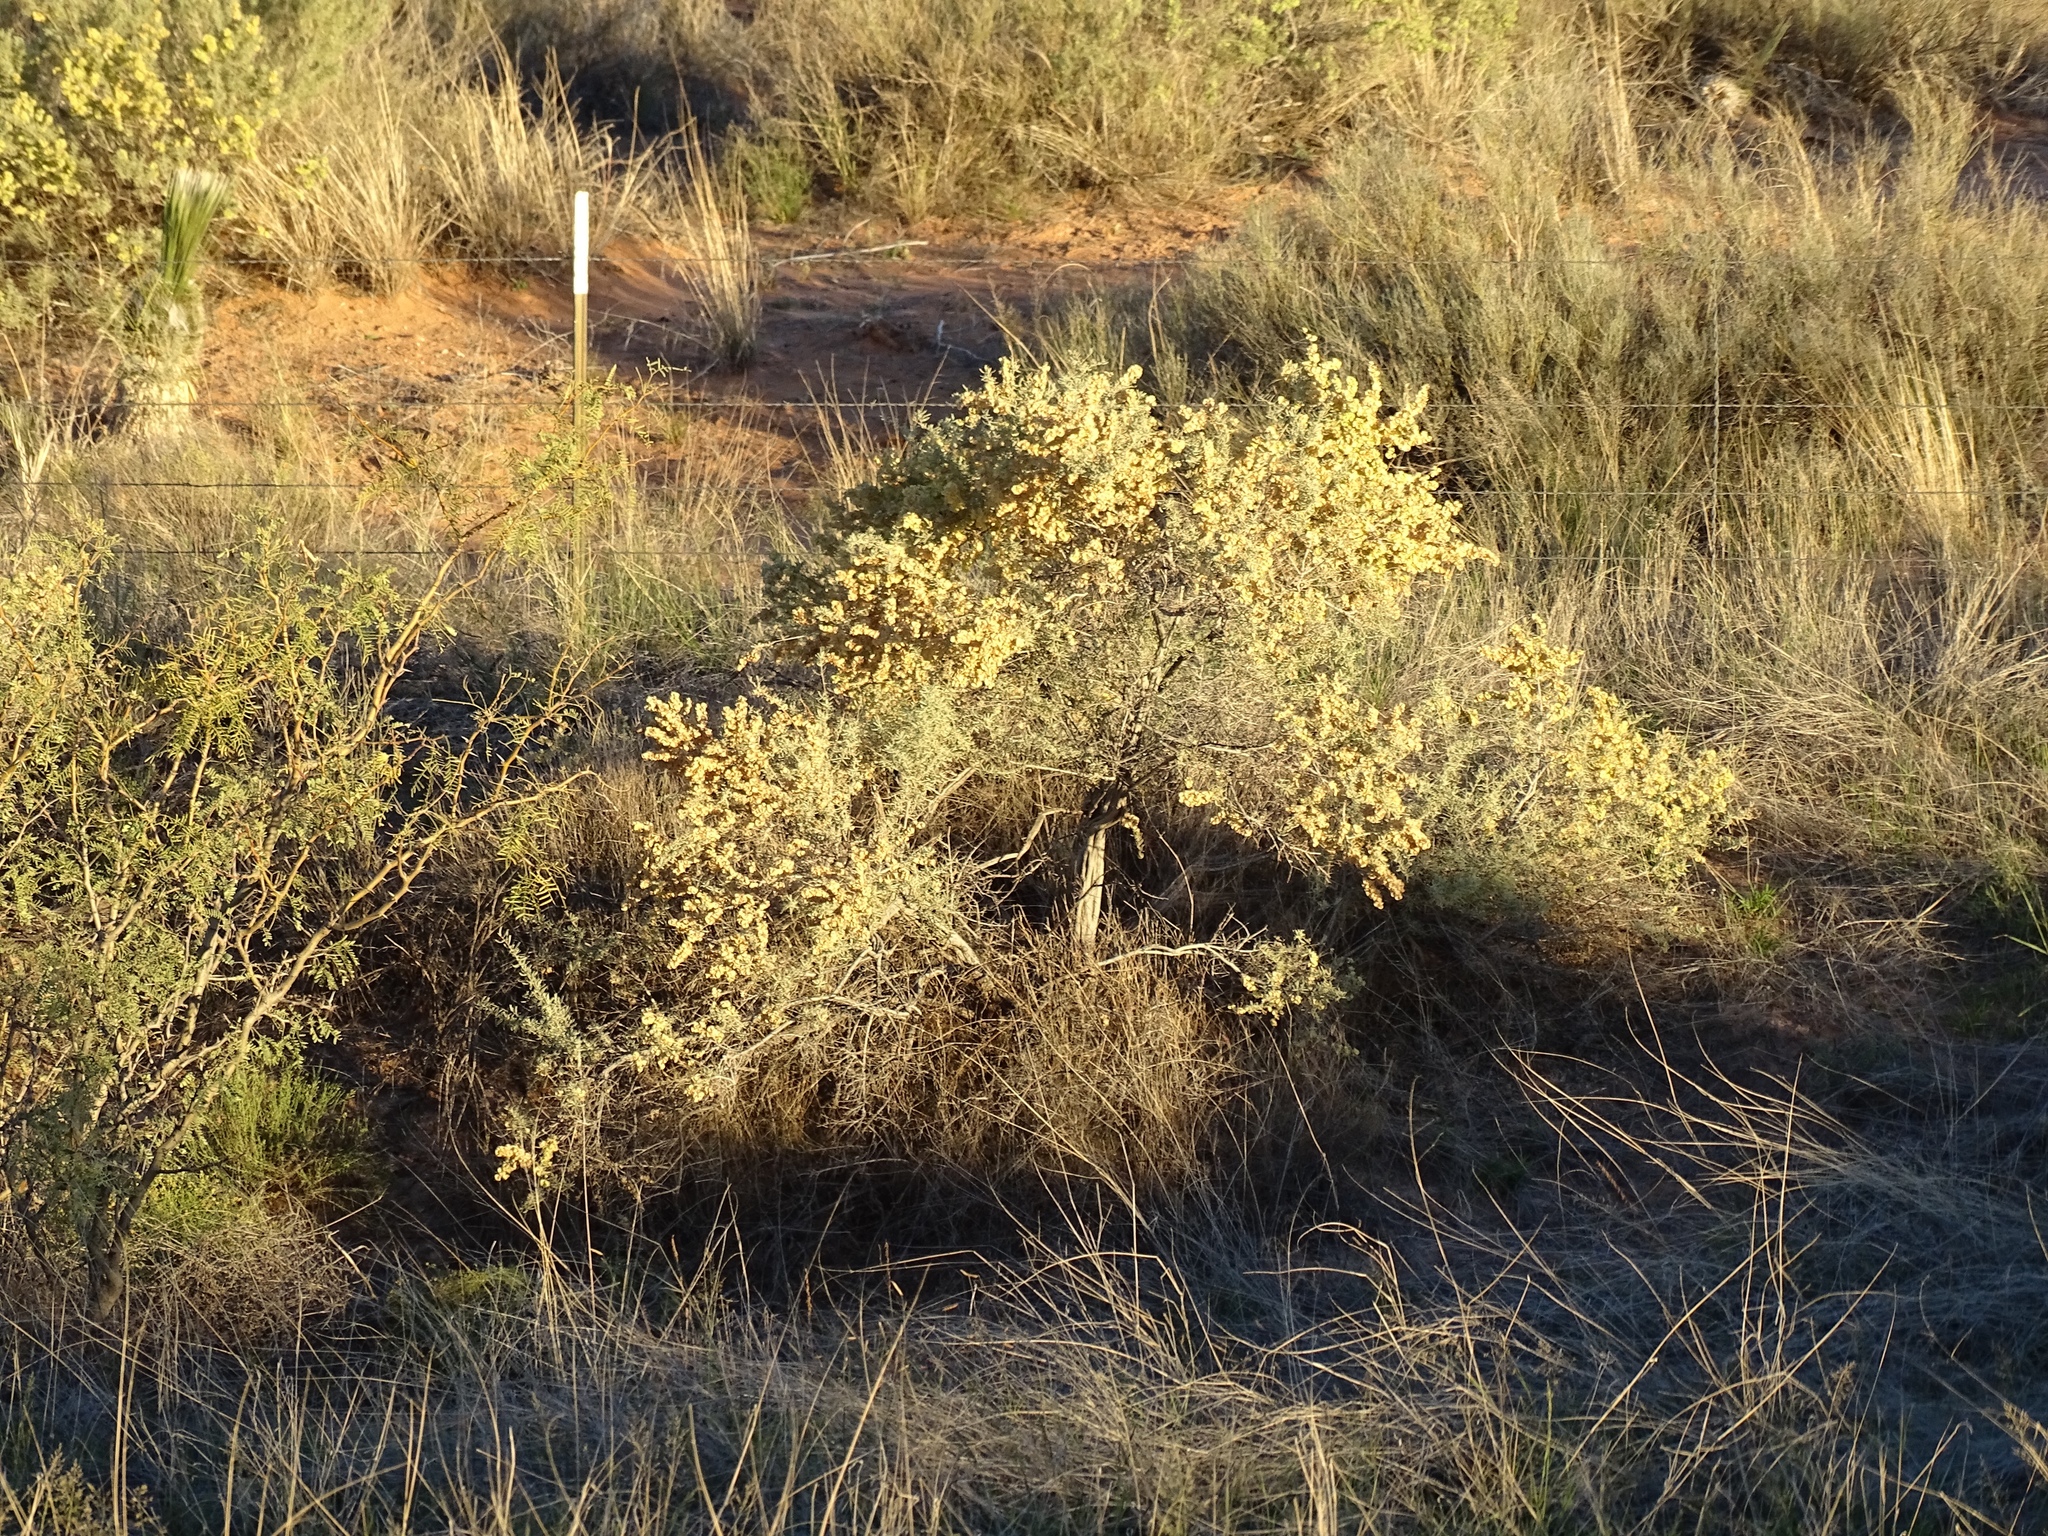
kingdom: Plantae
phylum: Tracheophyta
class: Magnoliopsida
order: Caryophyllales
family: Amaranthaceae
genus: Atriplex
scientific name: Atriplex canescens
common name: Four-wing saltbush
